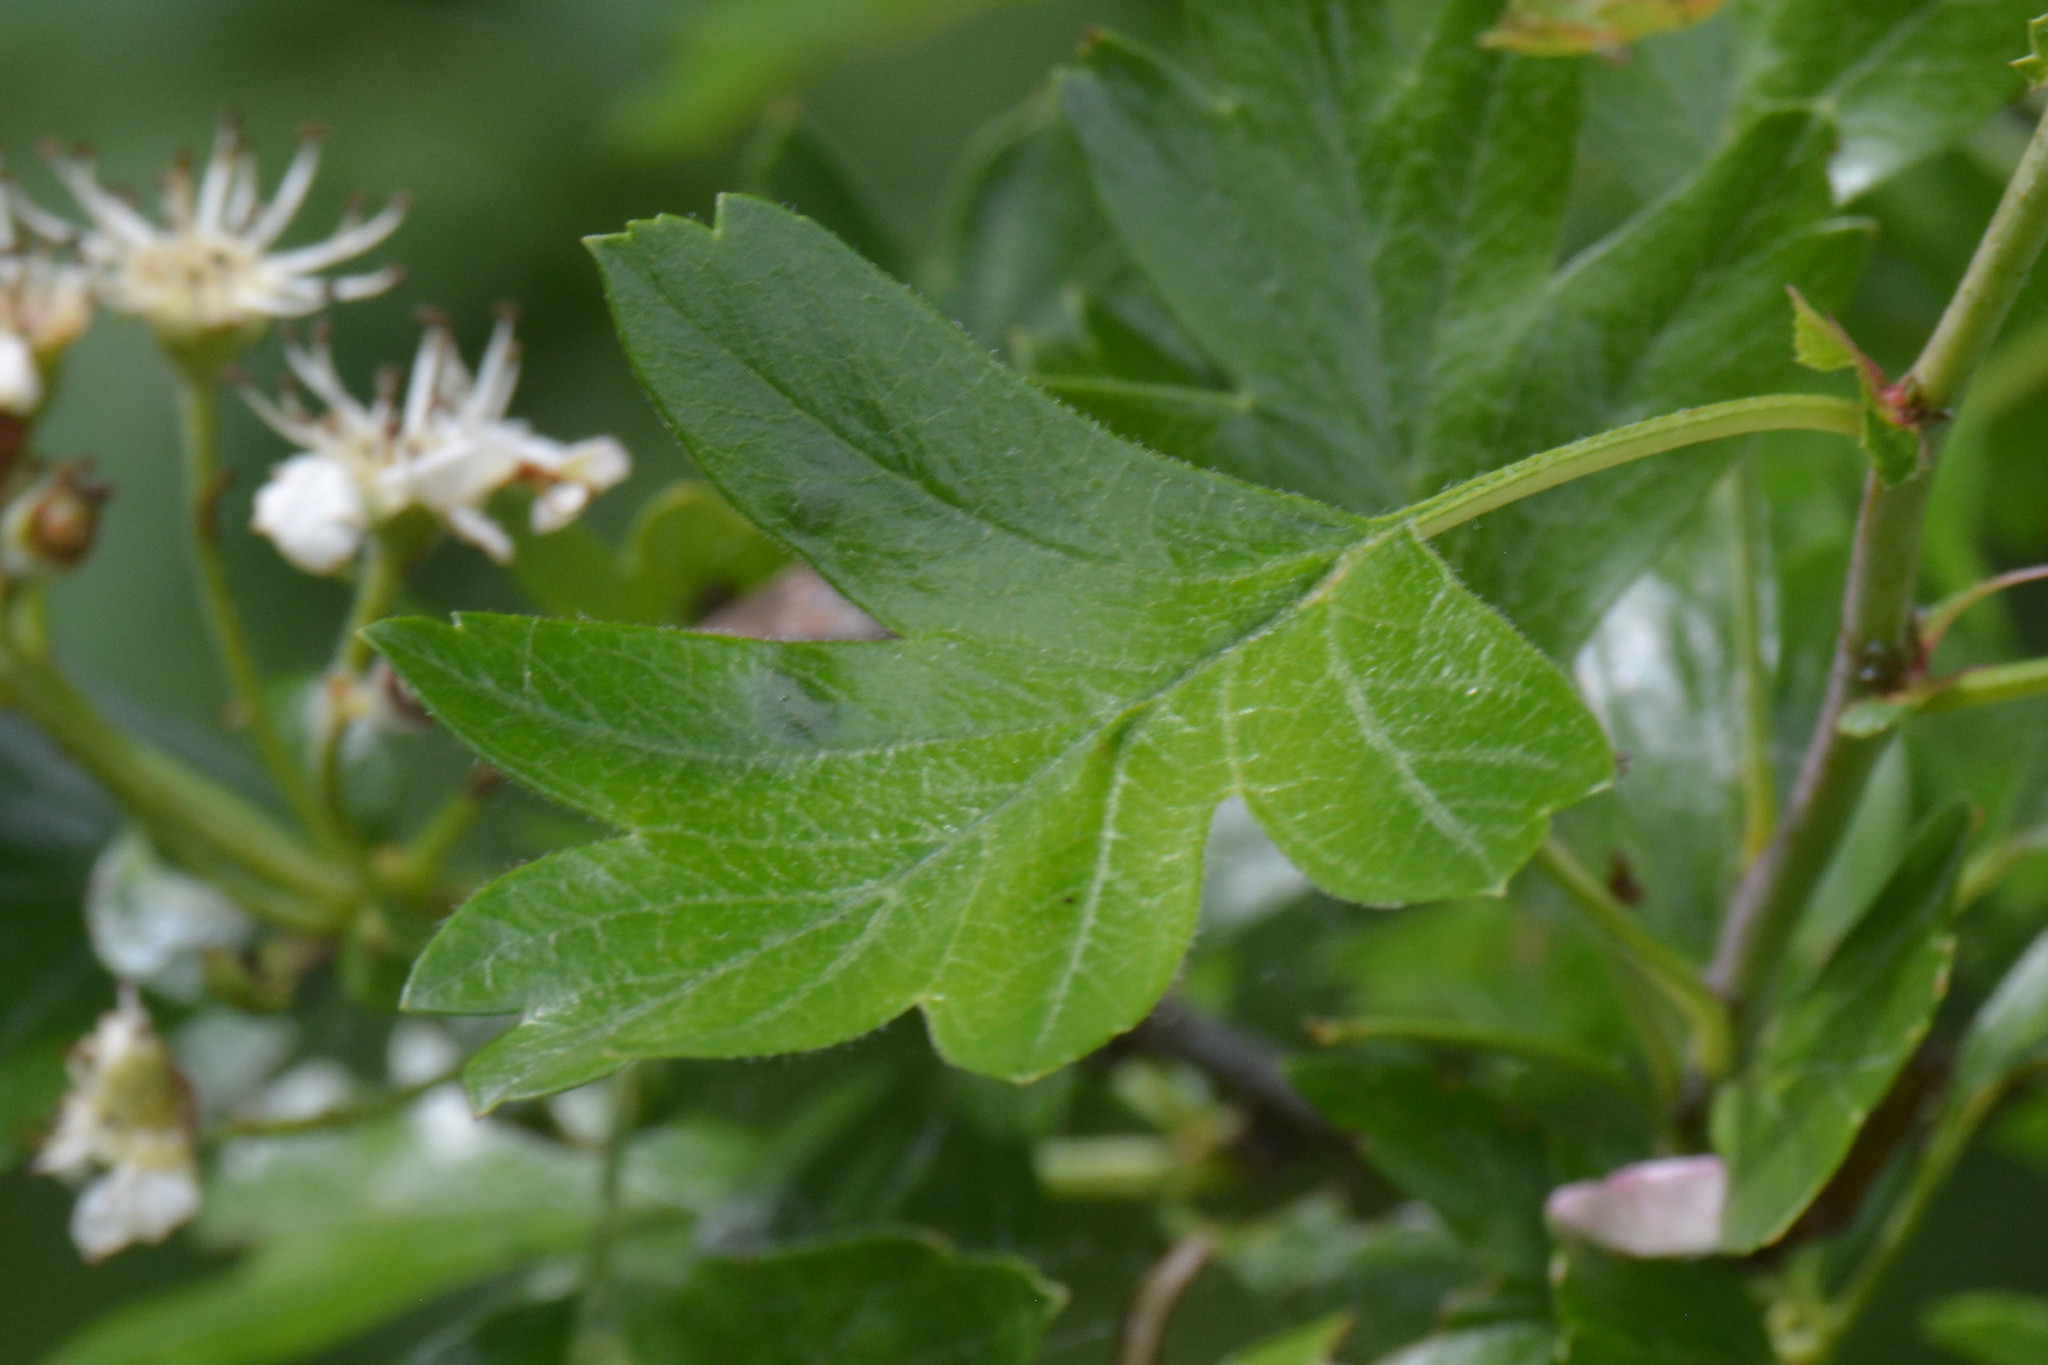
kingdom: Plantae
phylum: Tracheophyta
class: Magnoliopsida
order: Rosales
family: Rosaceae
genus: Crataegus
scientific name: Crataegus monogyna
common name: Hawthorn
